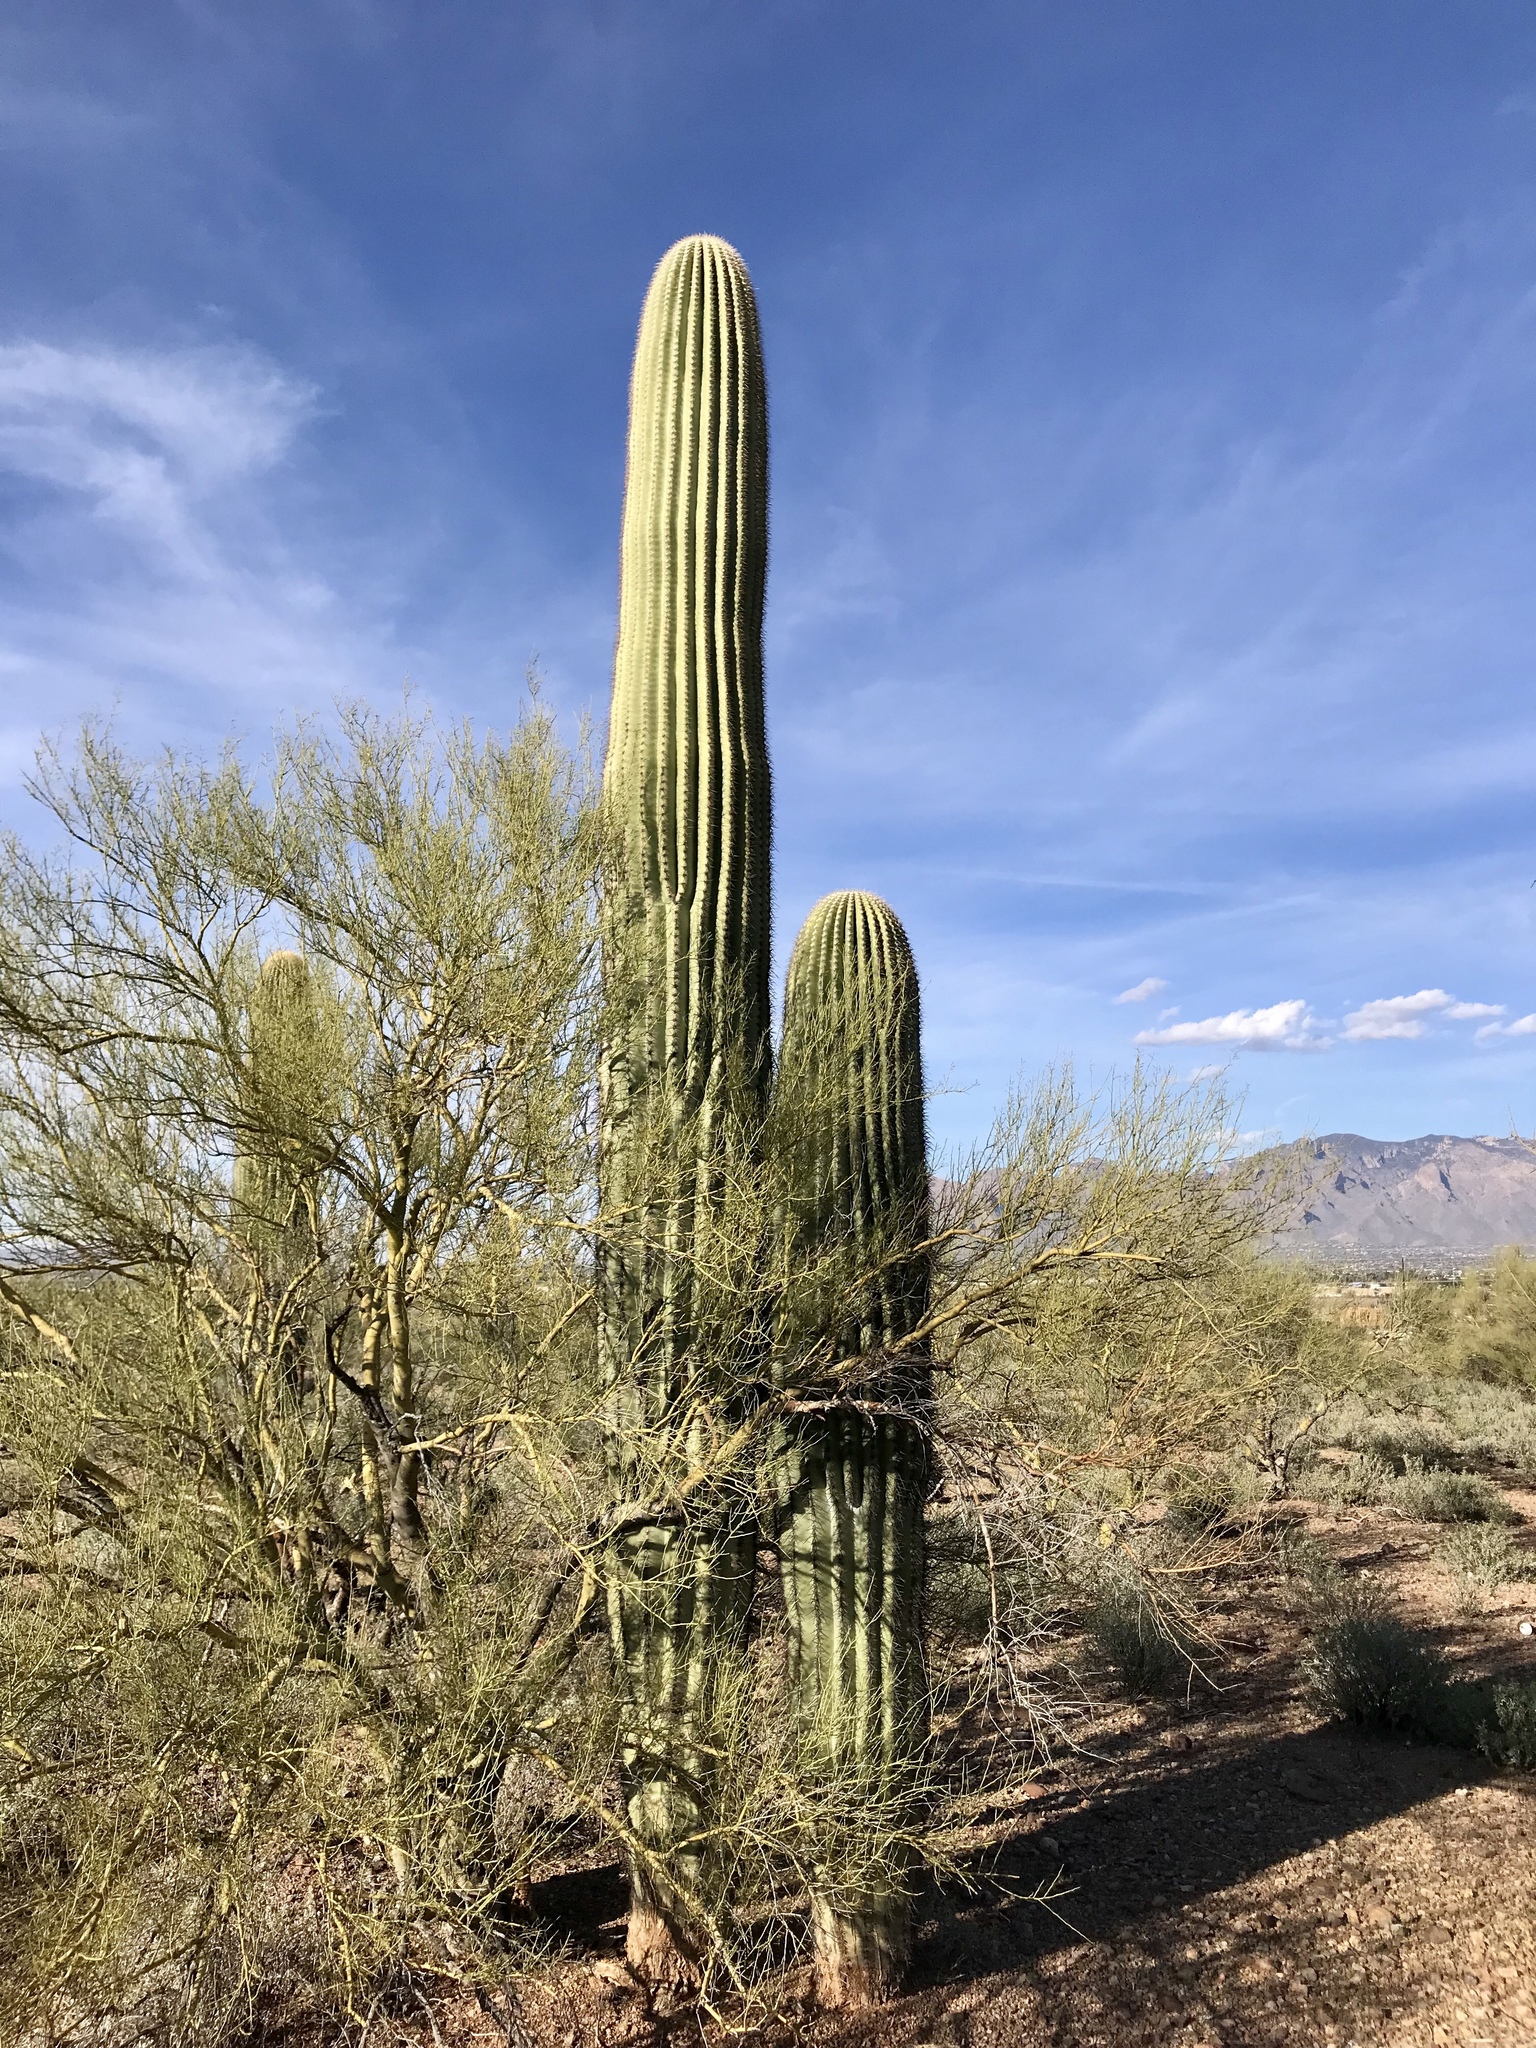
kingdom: Plantae
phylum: Tracheophyta
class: Magnoliopsida
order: Caryophyllales
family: Cactaceae
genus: Carnegiea
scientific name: Carnegiea gigantea
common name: Saguaro
